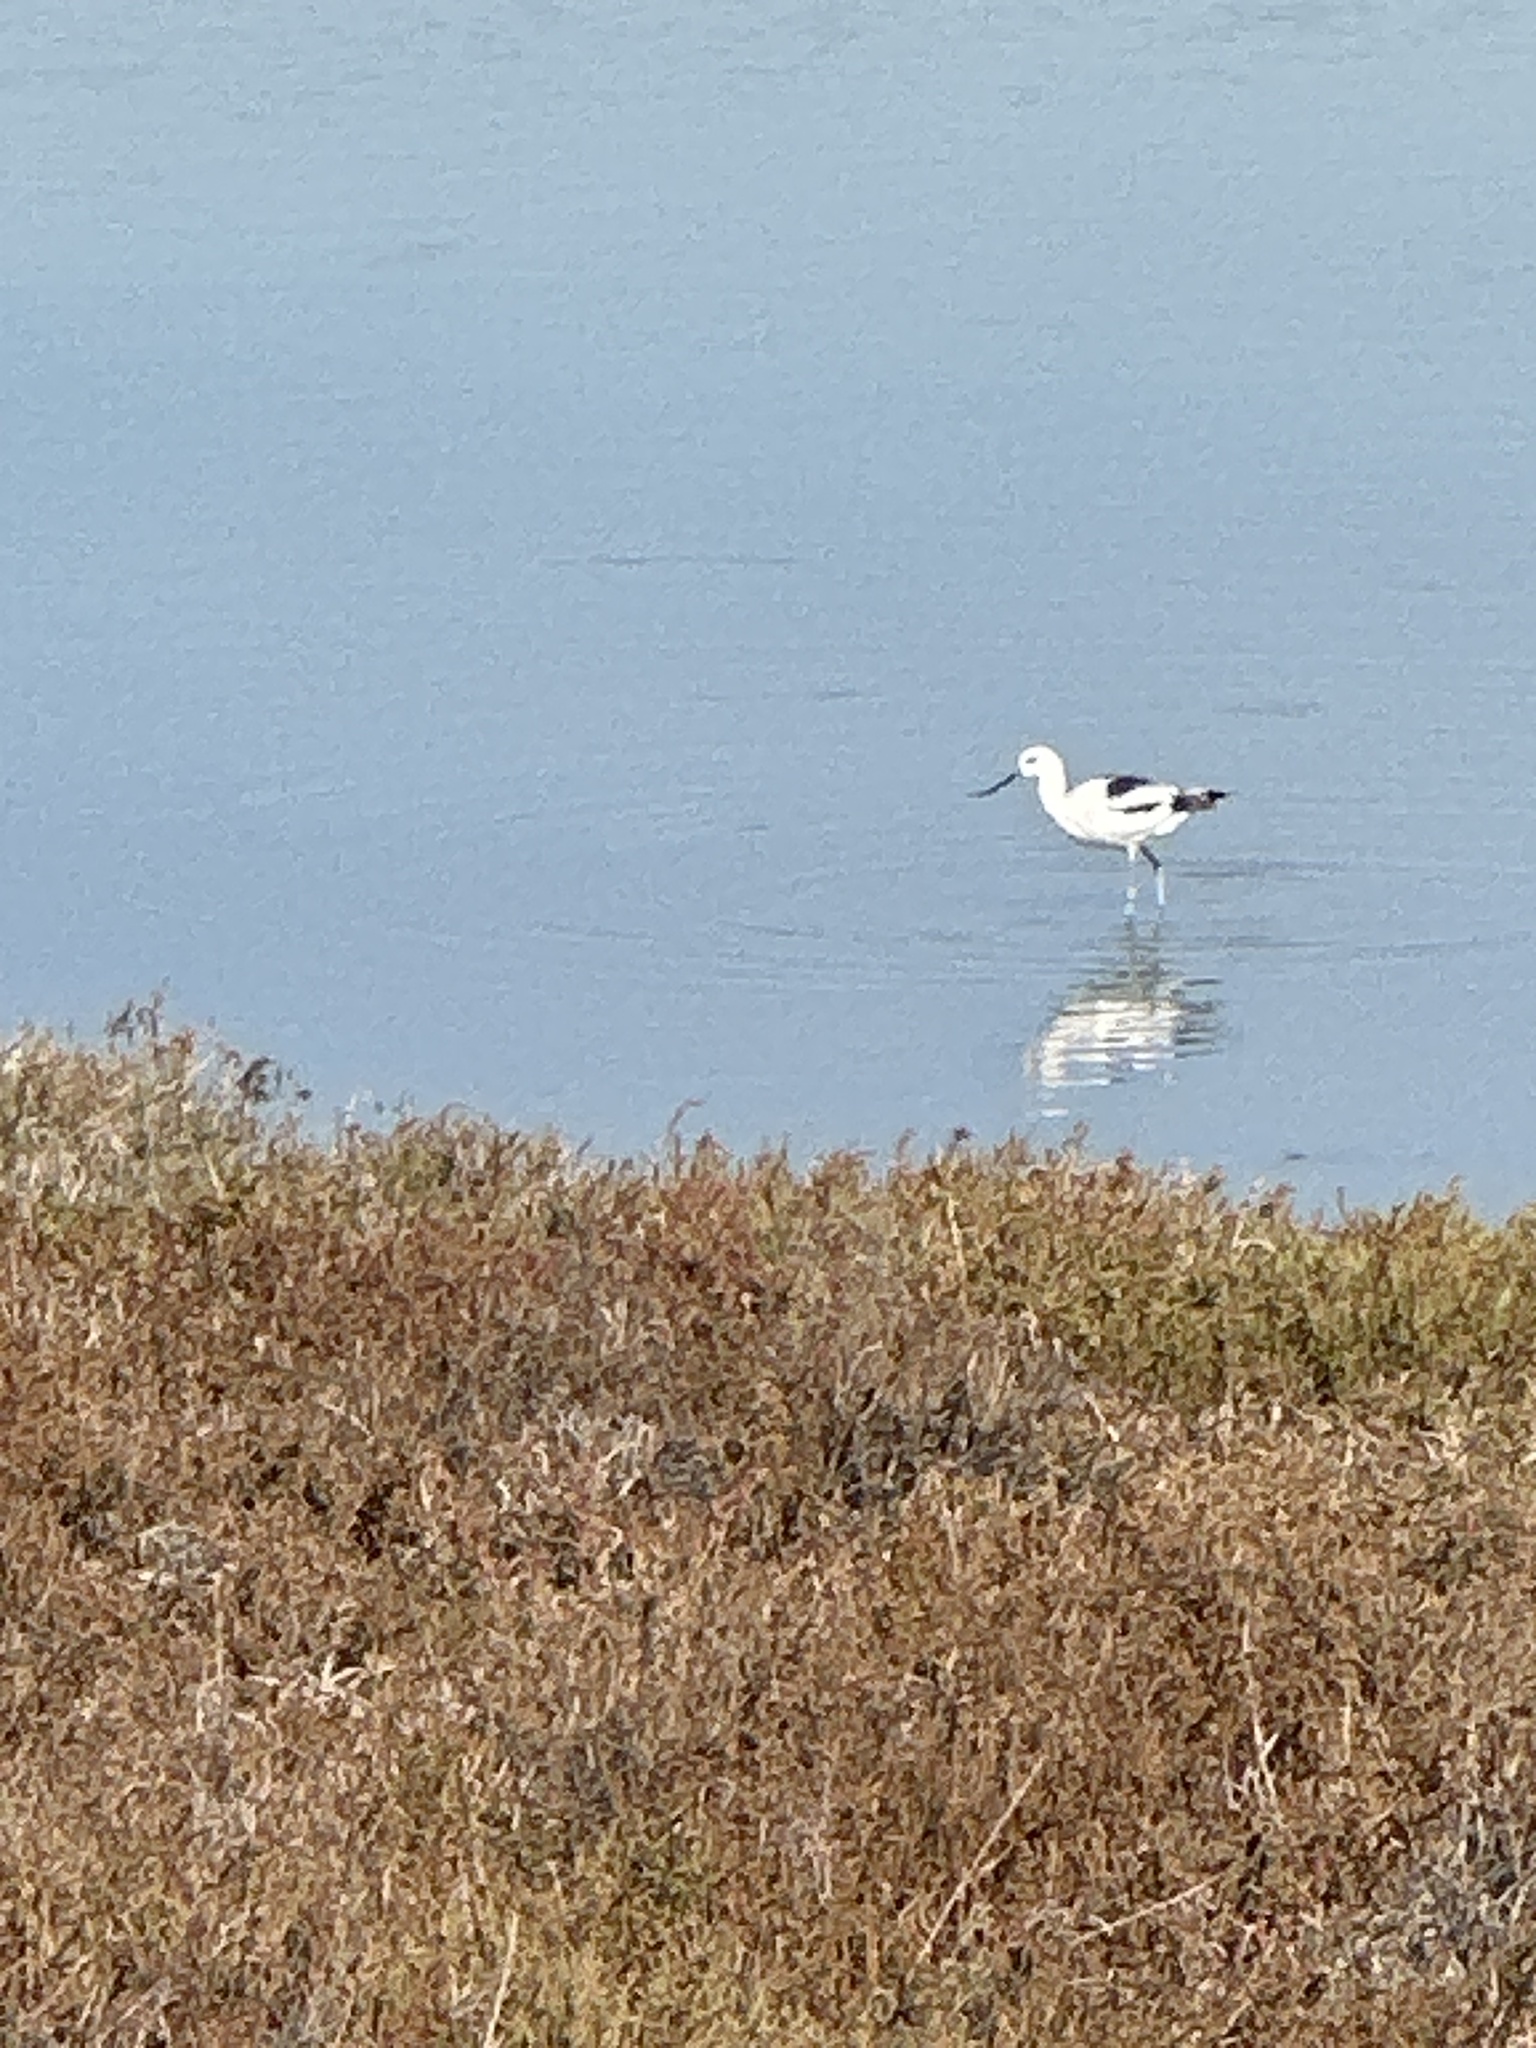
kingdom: Animalia
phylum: Chordata
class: Aves
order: Charadriiformes
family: Recurvirostridae
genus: Recurvirostra
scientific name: Recurvirostra americana
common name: American avocet
